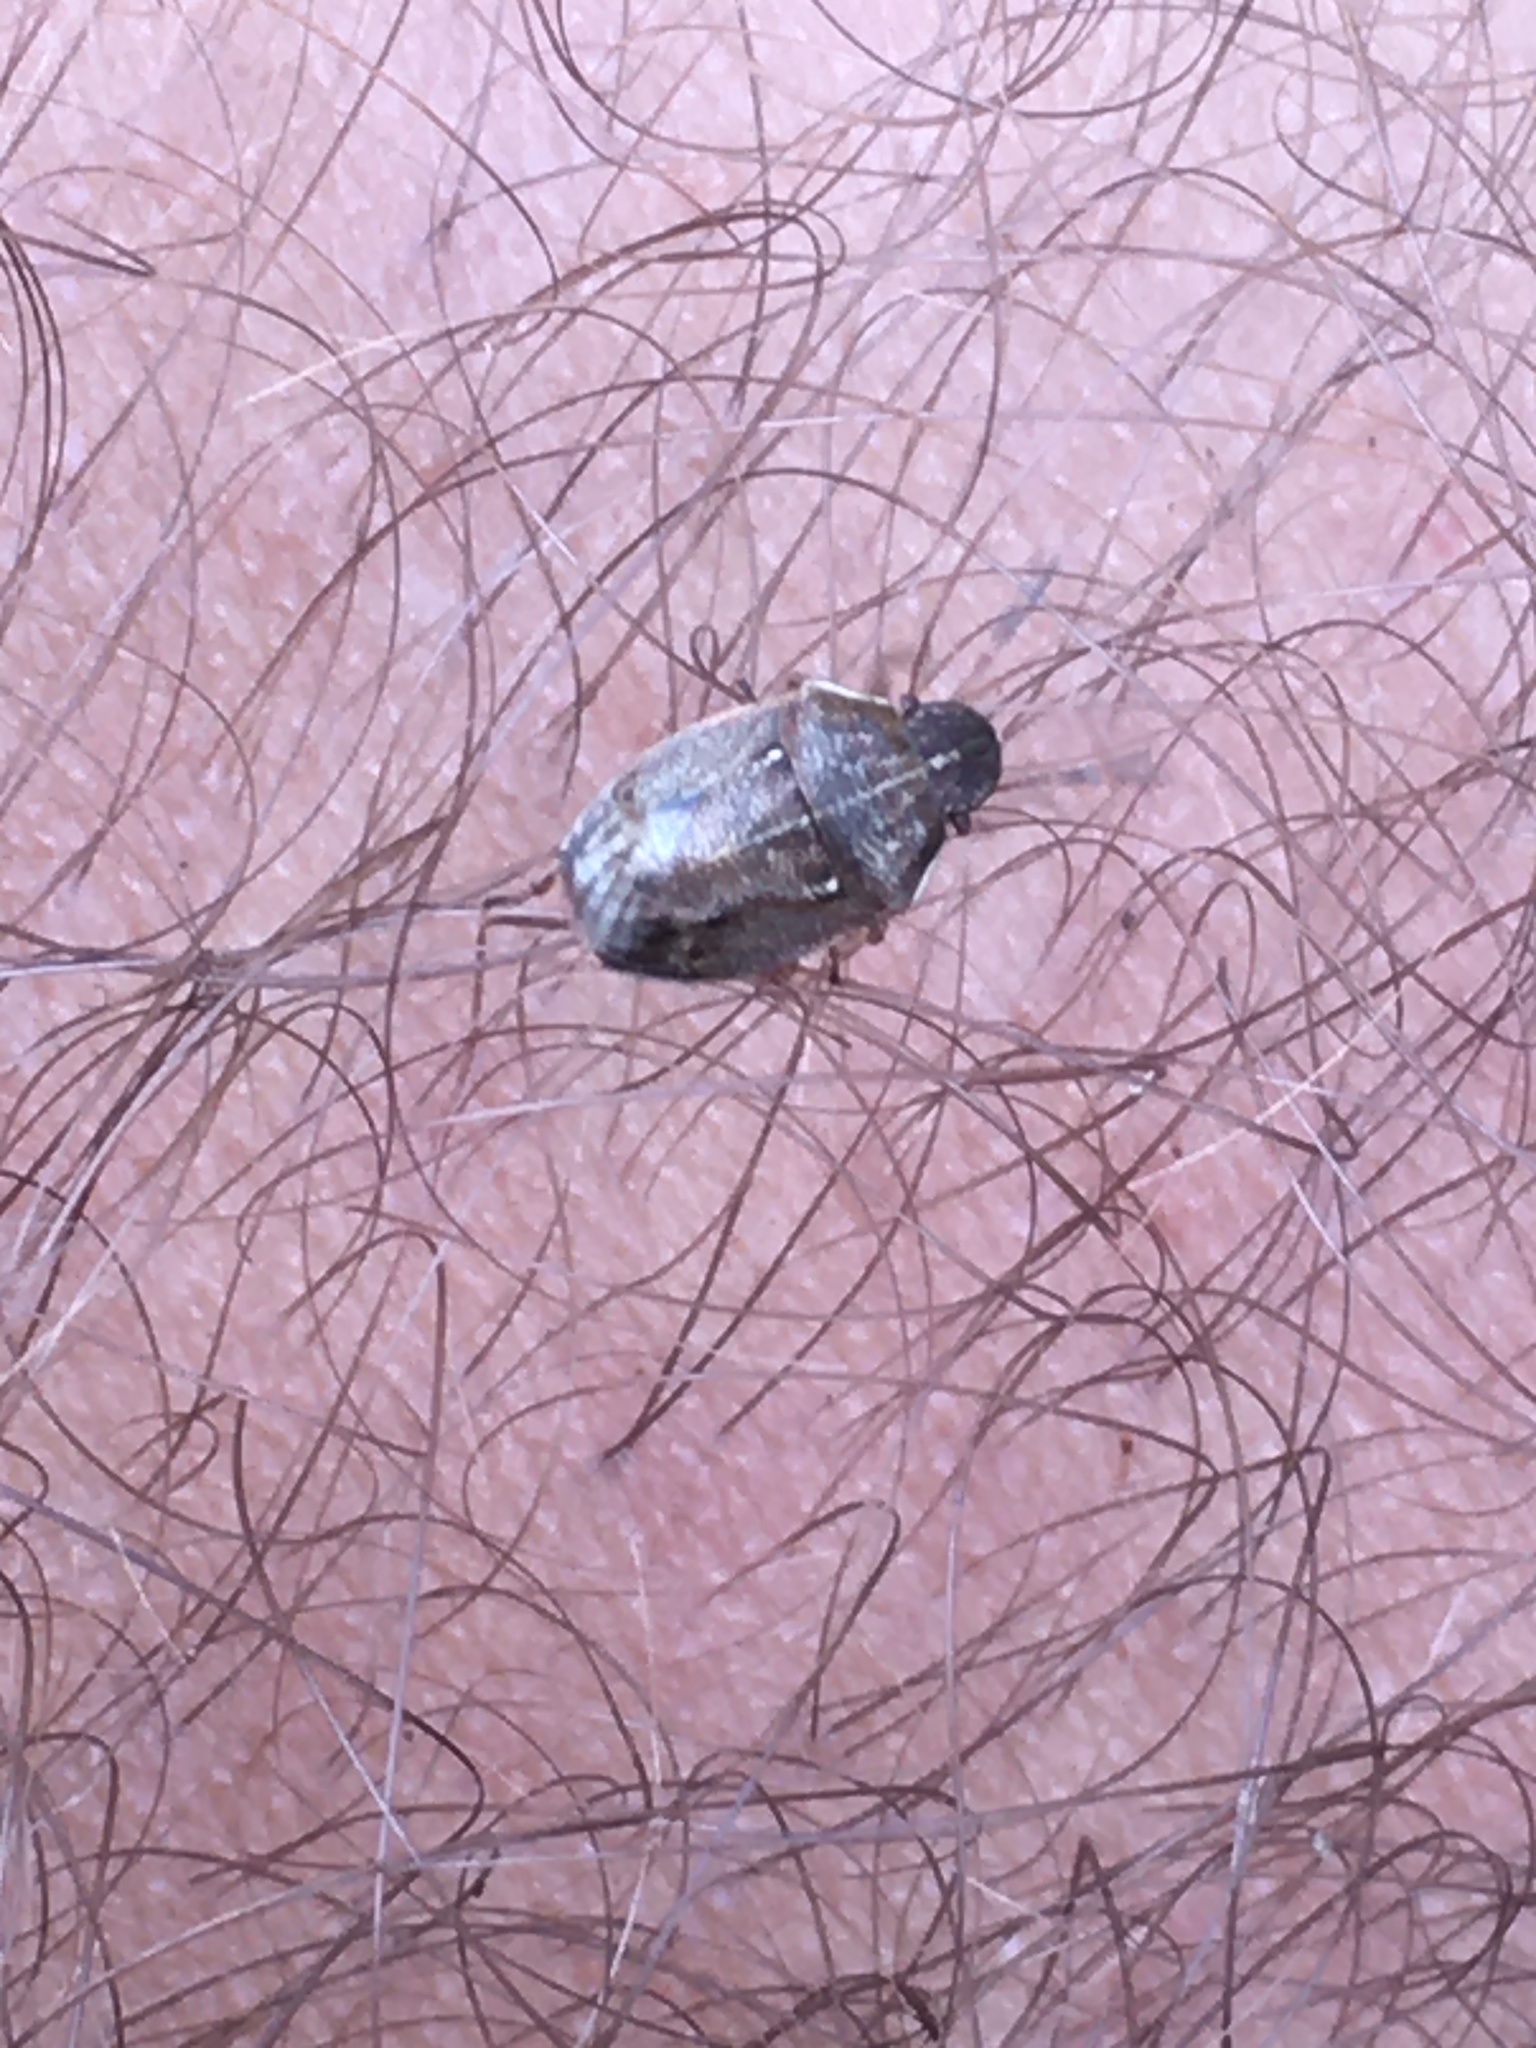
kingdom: Animalia
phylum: Arthropoda
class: Insecta
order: Hemiptera
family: Pentatomidae
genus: Neottiglossa
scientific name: Neottiglossa pusilla
